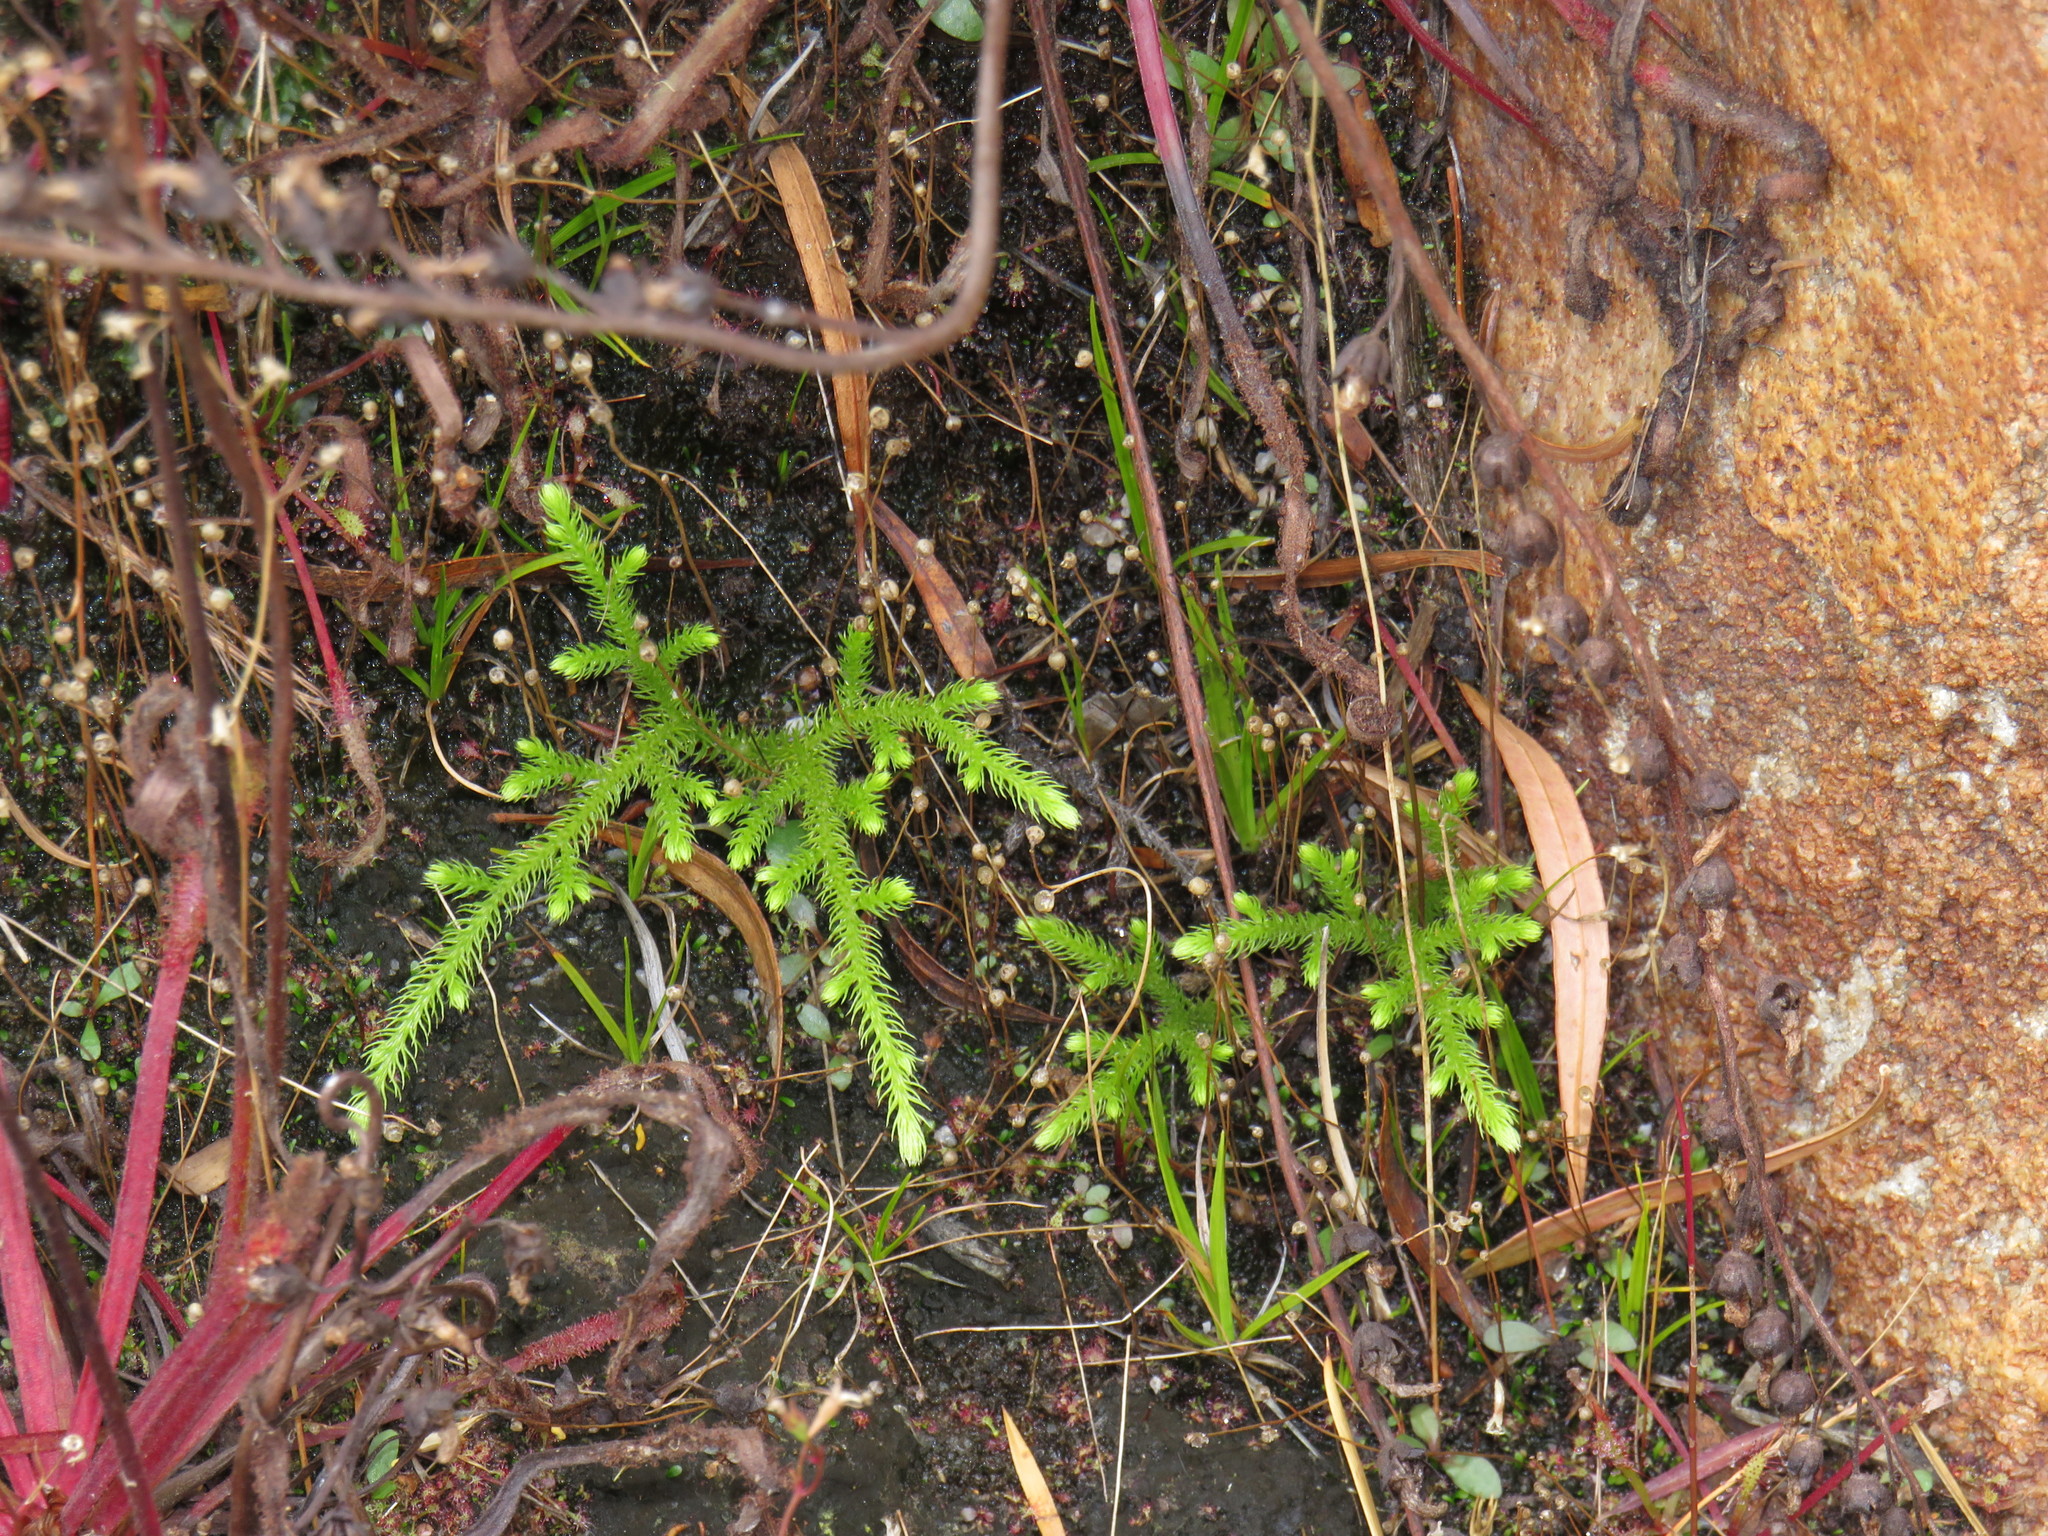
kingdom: Plantae
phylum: Tracheophyta
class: Lycopodiopsida
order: Lycopodiales
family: Lycopodiaceae
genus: Palhinhaea
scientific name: Palhinhaea cernua
